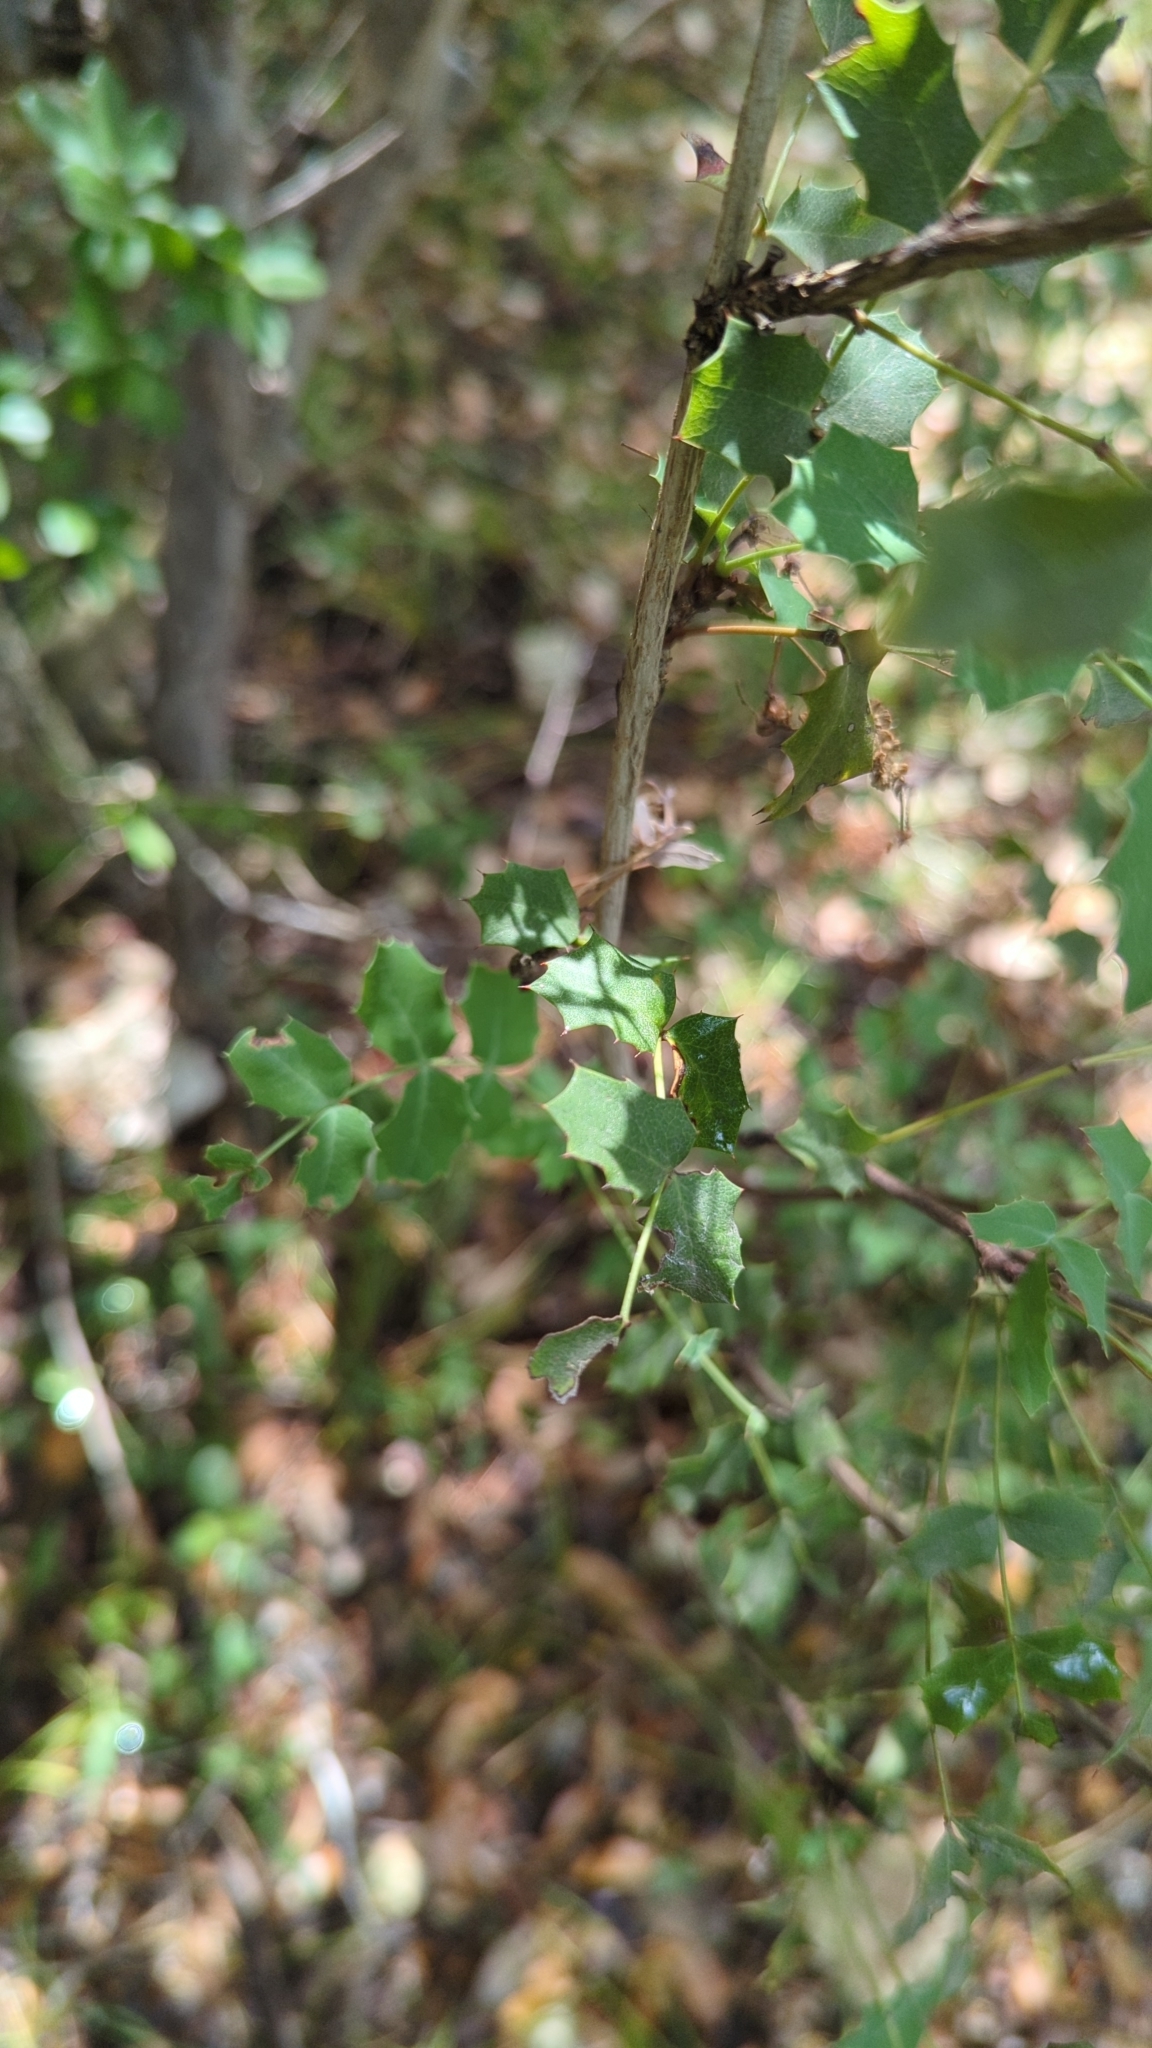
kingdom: Plantae
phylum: Tracheophyta
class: Magnoliopsida
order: Ranunculales
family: Berberidaceae
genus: Berberis
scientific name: Berberis swaseyi
